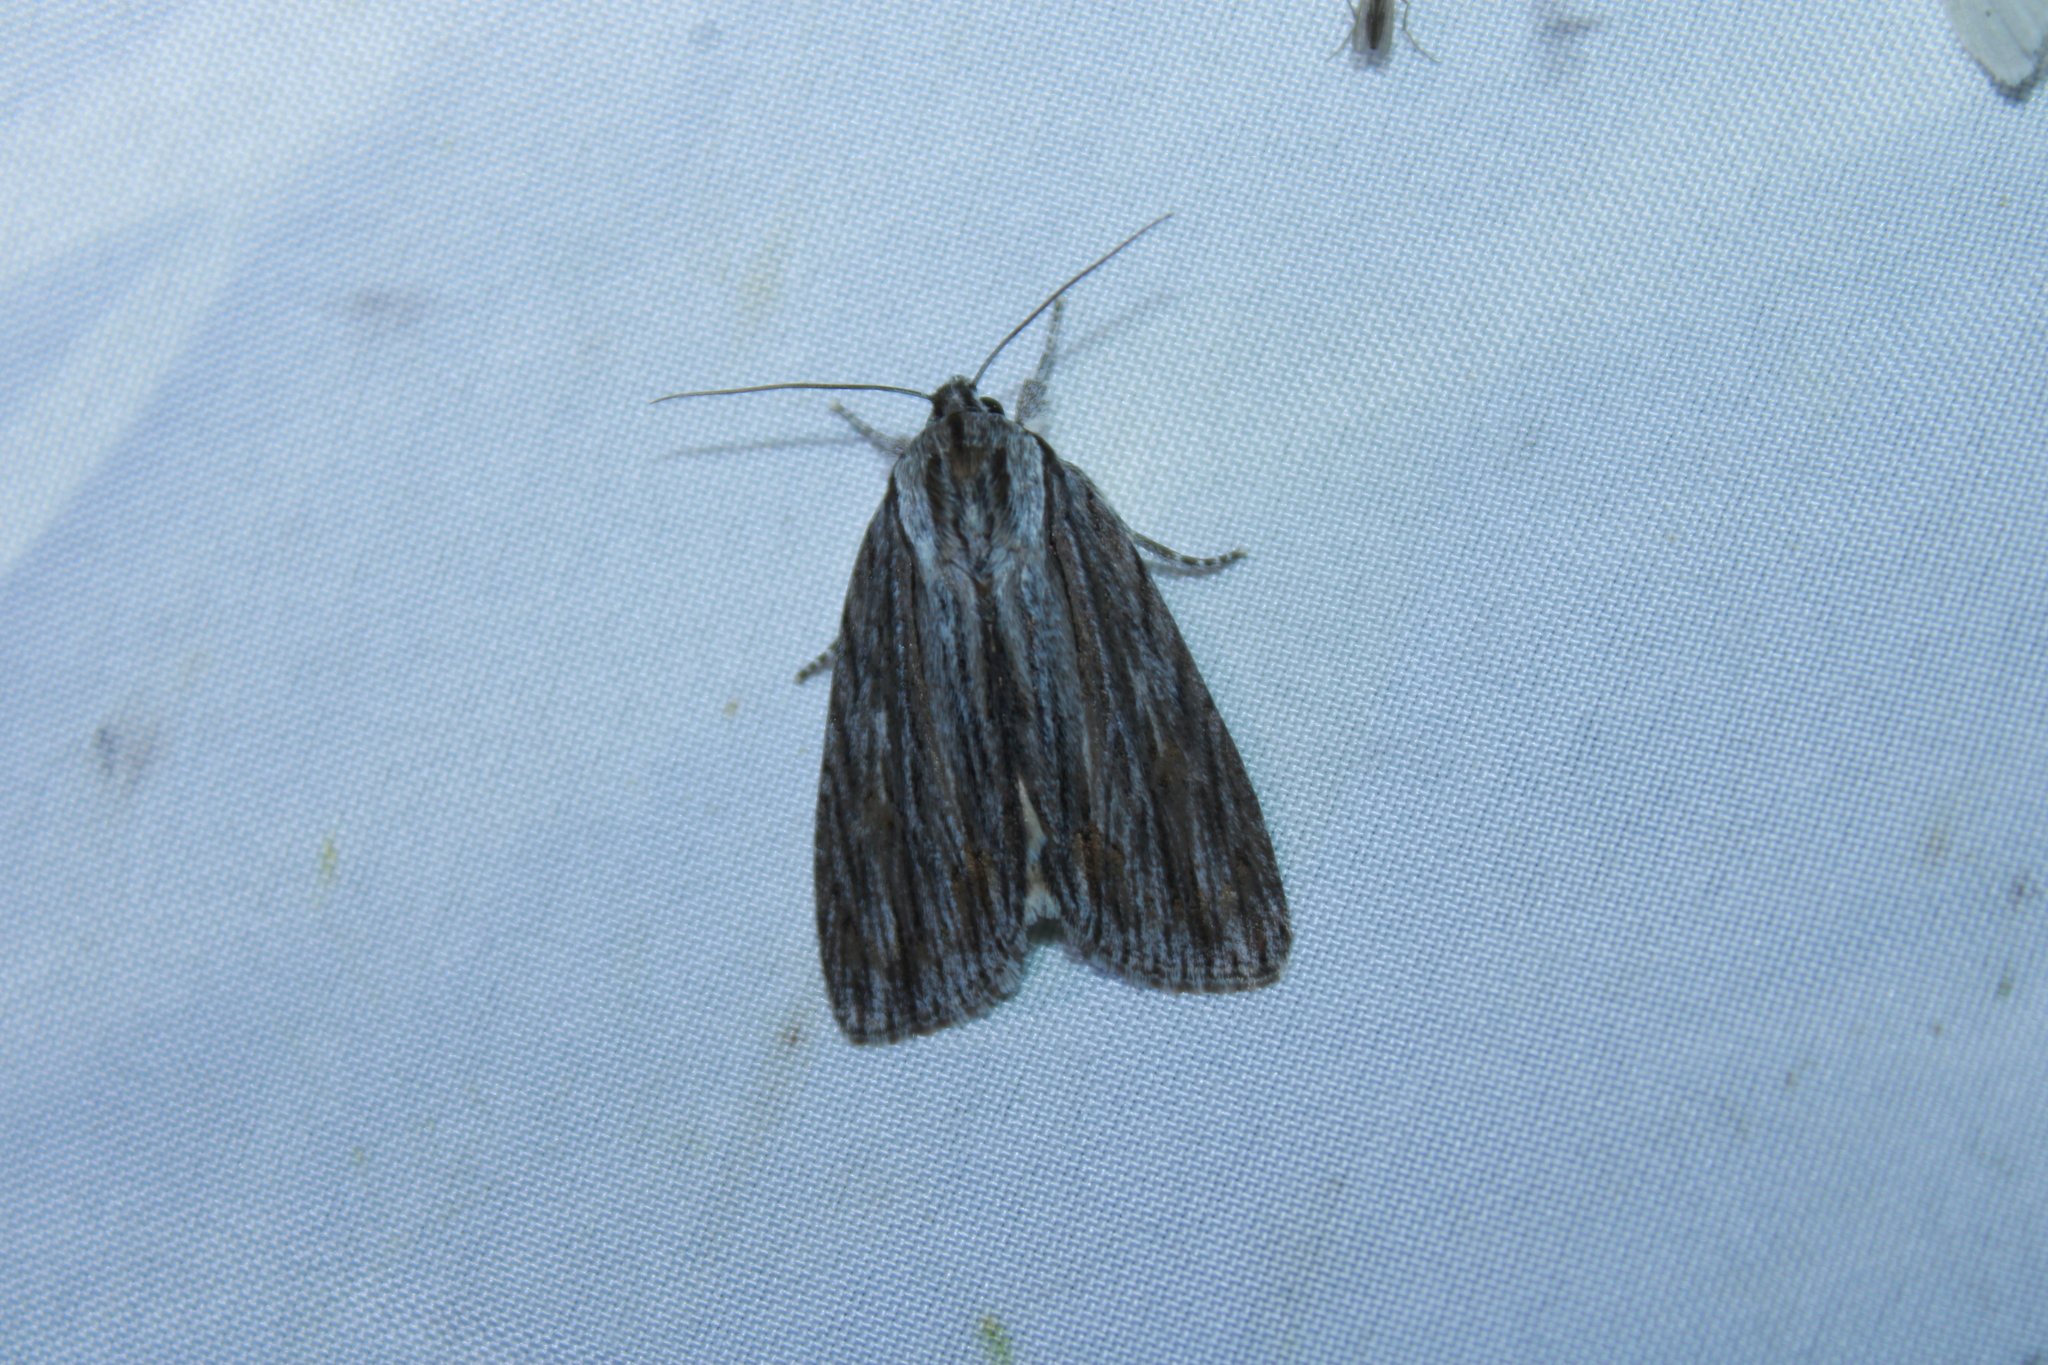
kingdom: Animalia
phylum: Arthropoda
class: Insecta
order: Lepidoptera
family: Noctuidae
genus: Acronicta
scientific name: Acronicta lithospila
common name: Streaked dagger
